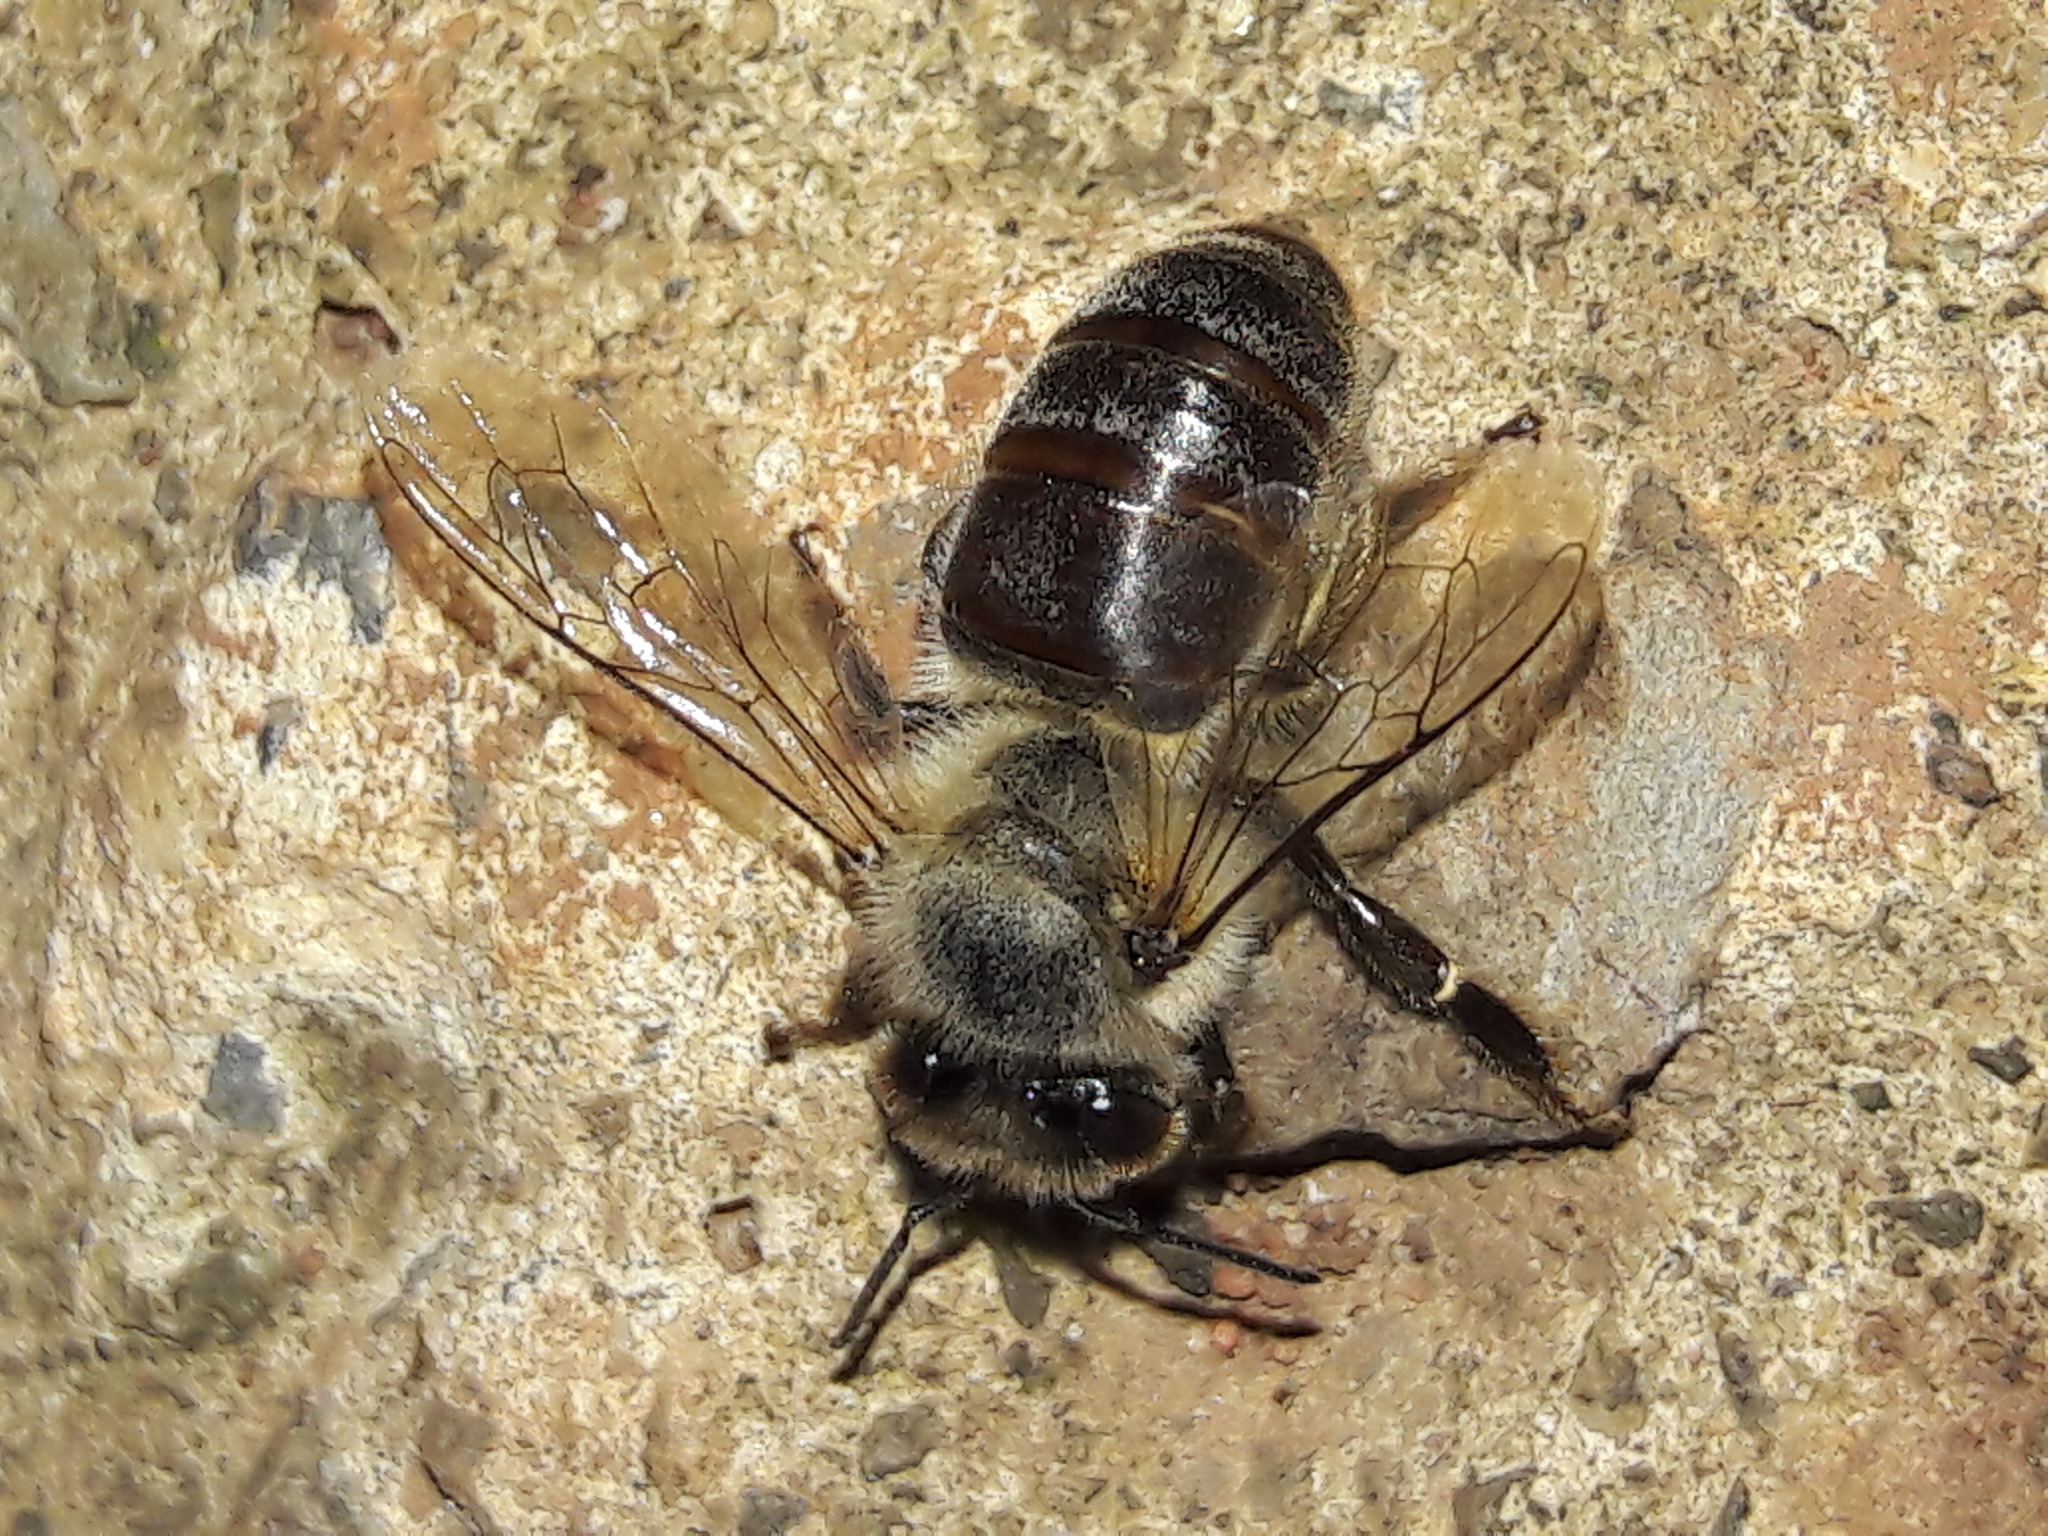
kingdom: Animalia
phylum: Arthropoda
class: Insecta
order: Hymenoptera
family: Apidae
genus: Apis
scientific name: Apis mellifera
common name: Honey bee
